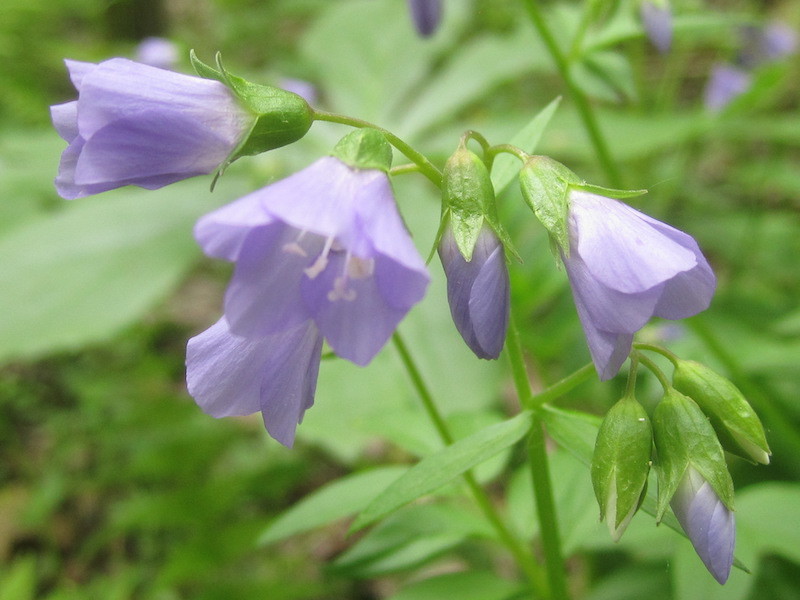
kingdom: Plantae
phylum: Tracheophyta
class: Magnoliopsida
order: Ericales
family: Polemoniaceae
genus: Polemonium
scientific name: Polemonium reptans
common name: Creeping jacob's-ladder
